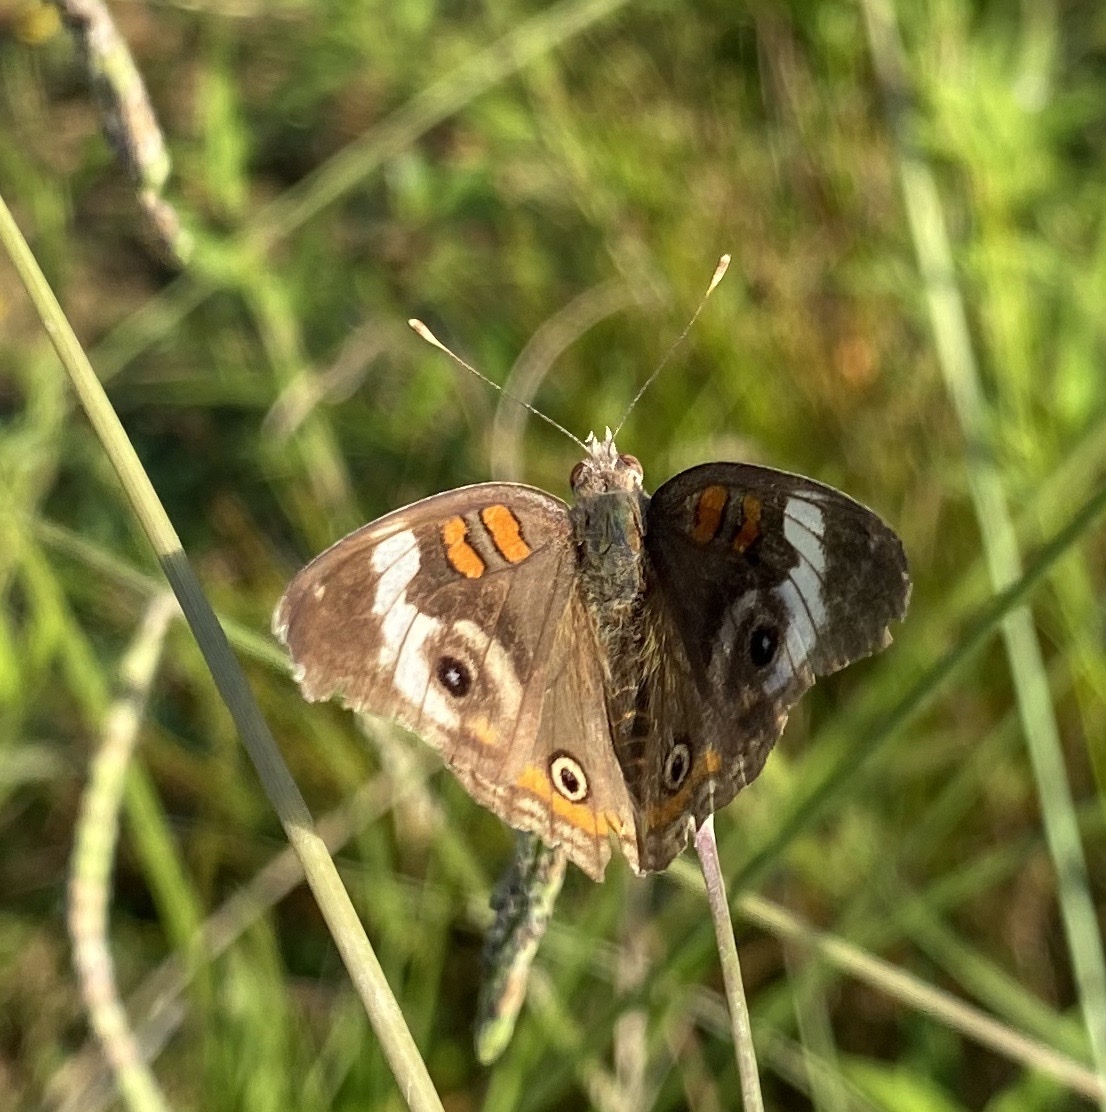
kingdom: Animalia
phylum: Arthropoda
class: Insecta
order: Lepidoptera
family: Nymphalidae
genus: Junonia
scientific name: Junonia coenia
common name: Common buckeye
